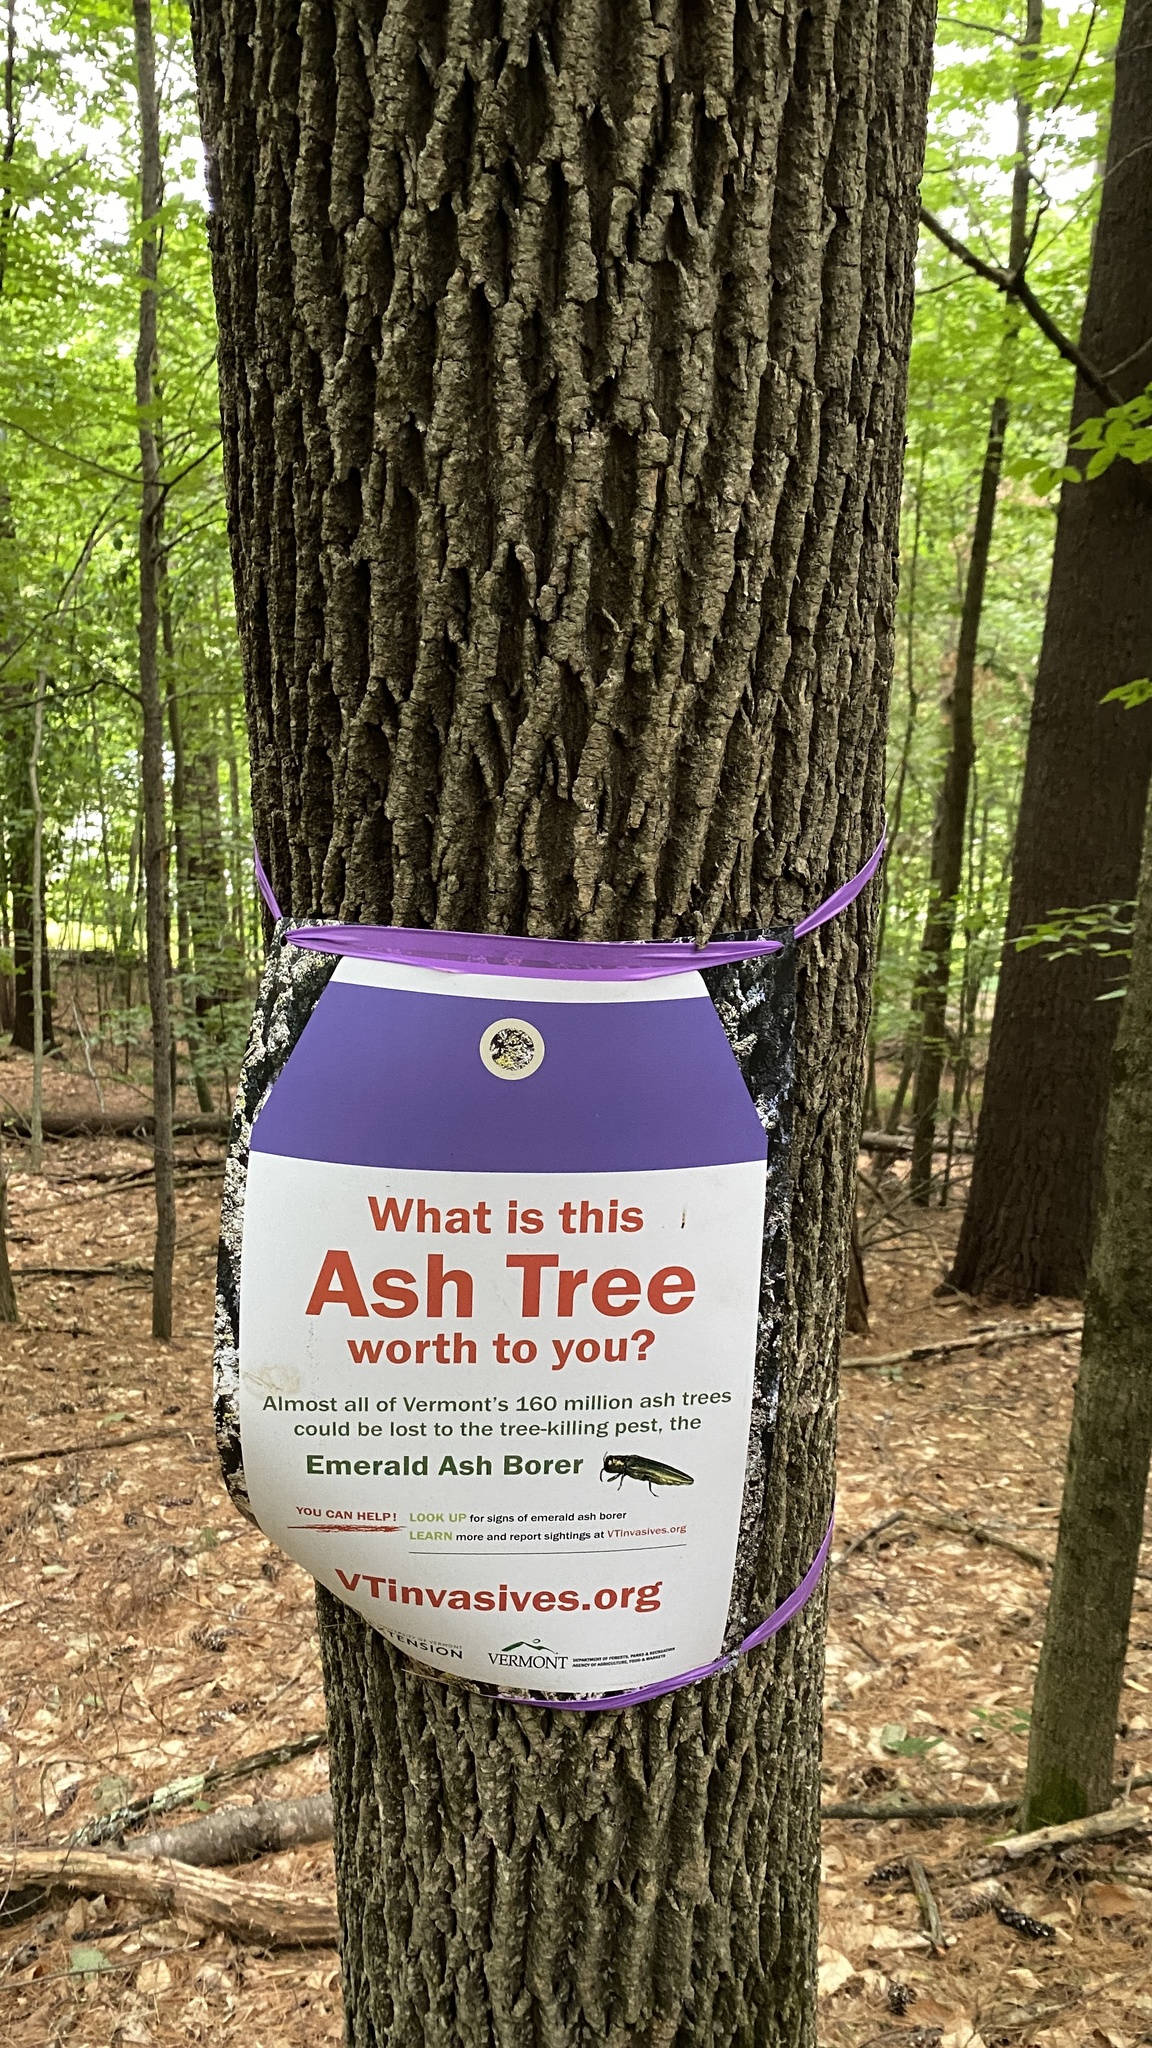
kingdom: Plantae
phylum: Tracheophyta
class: Magnoliopsida
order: Lamiales
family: Oleaceae
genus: Fraxinus
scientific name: Fraxinus americana
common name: White ash
